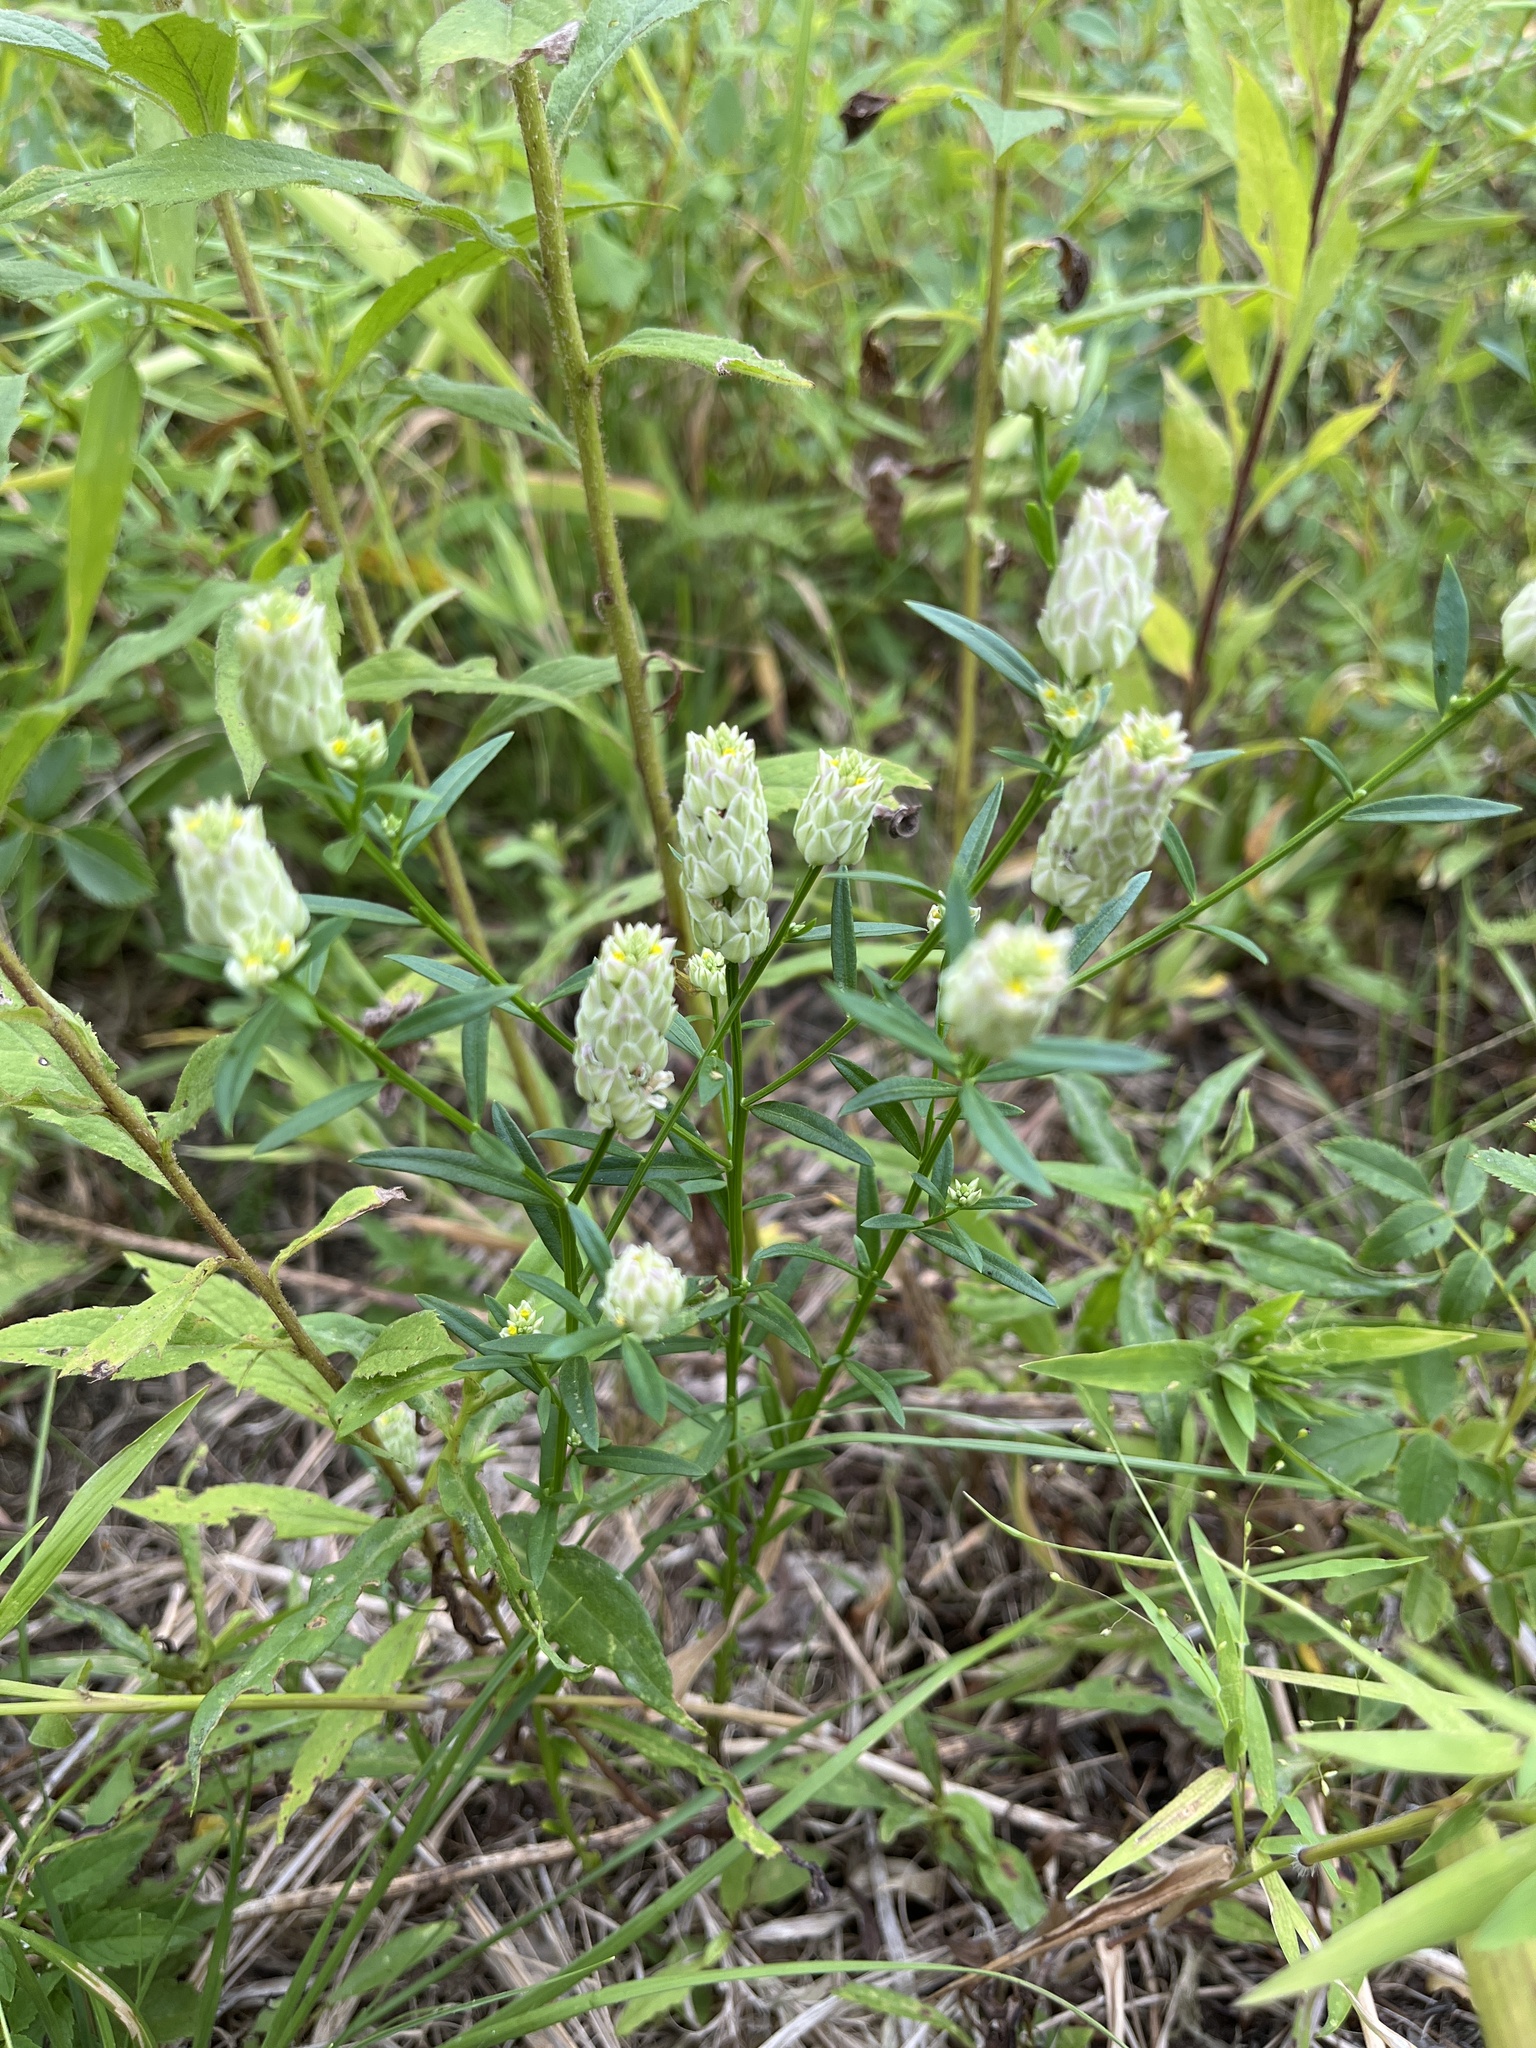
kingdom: Plantae
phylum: Tracheophyta
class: Magnoliopsida
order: Fabales
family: Polygalaceae
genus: Polygala
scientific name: Polygala sanguinea
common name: Blood milkwort
